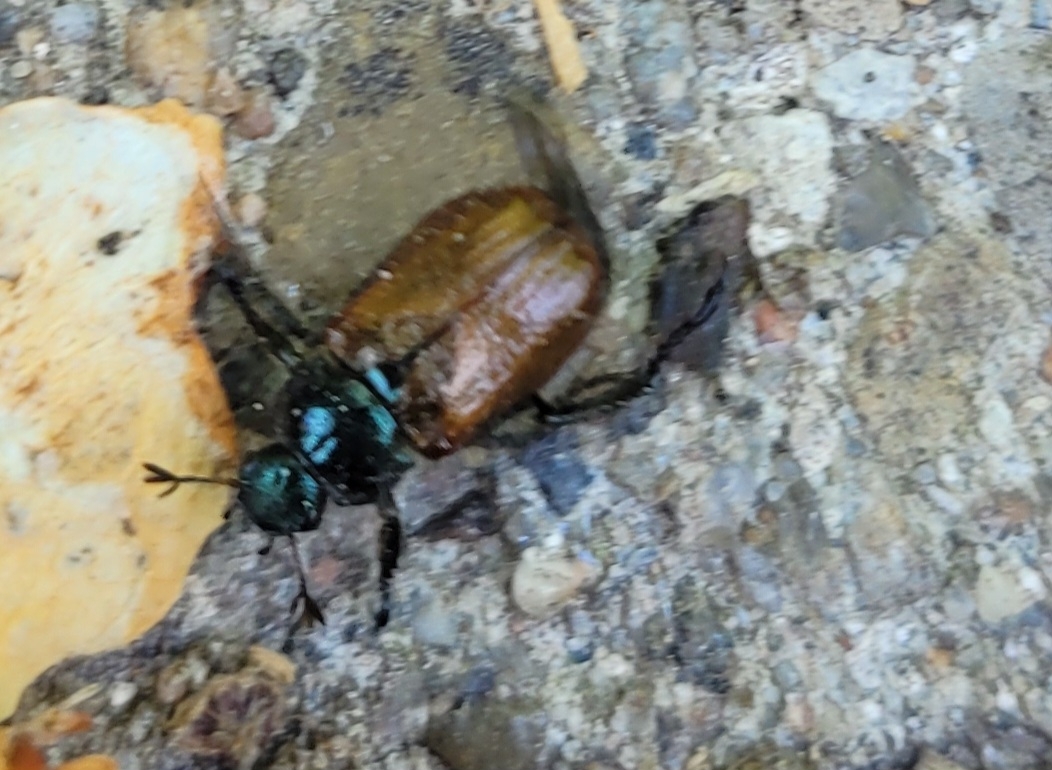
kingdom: Animalia
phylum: Arthropoda
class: Insecta
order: Coleoptera
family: Scarabaeidae
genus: Phyllopertha
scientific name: Phyllopertha horticola
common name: Garden chafer
